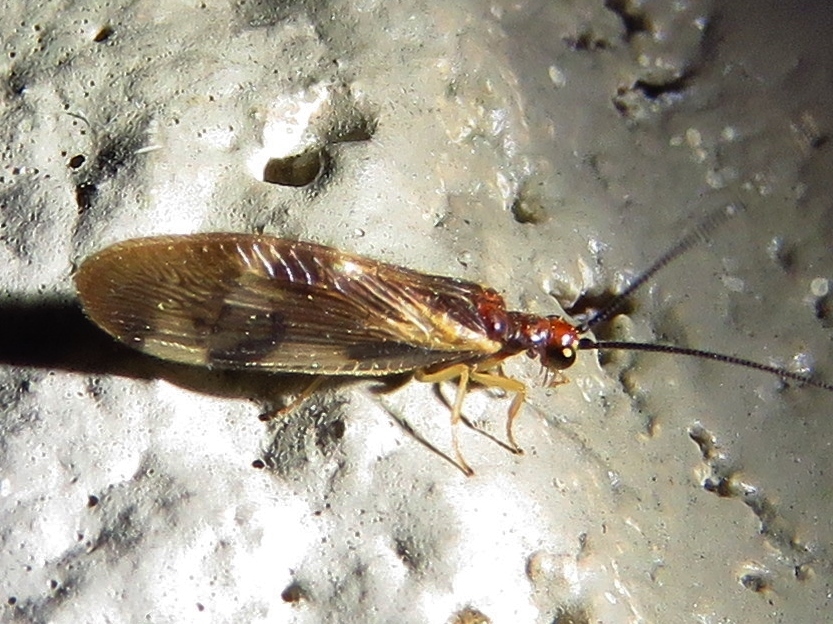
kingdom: Animalia
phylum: Arthropoda
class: Insecta
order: Neuroptera
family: Sisyridae
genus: Climacia
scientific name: Climacia areolaris
